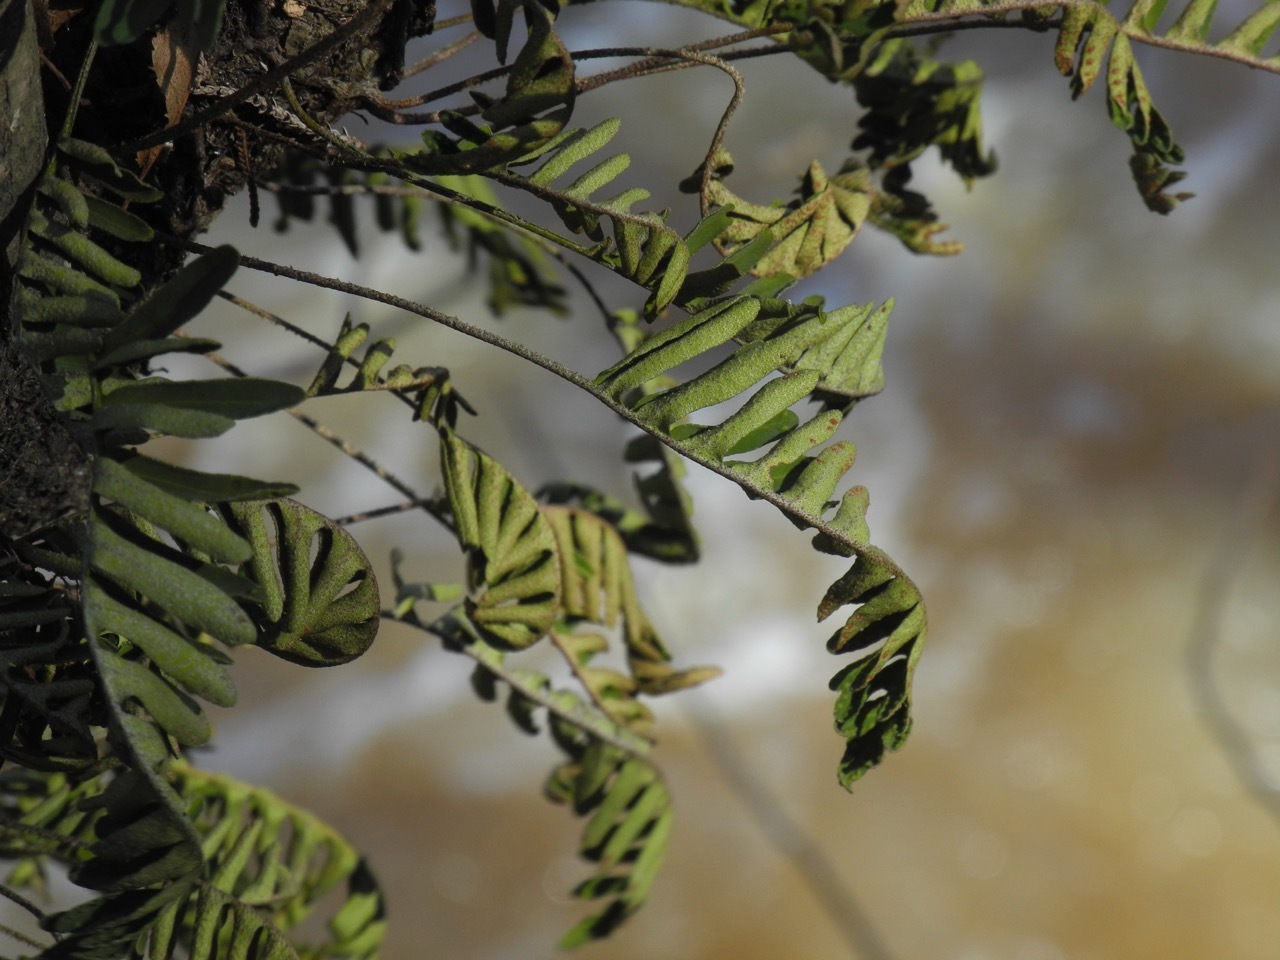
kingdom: Plantae
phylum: Tracheophyta
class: Polypodiopsida
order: Polypodiales
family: Polypodiaceae
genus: Pleopeltis
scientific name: Pleopeltis michauxiana
